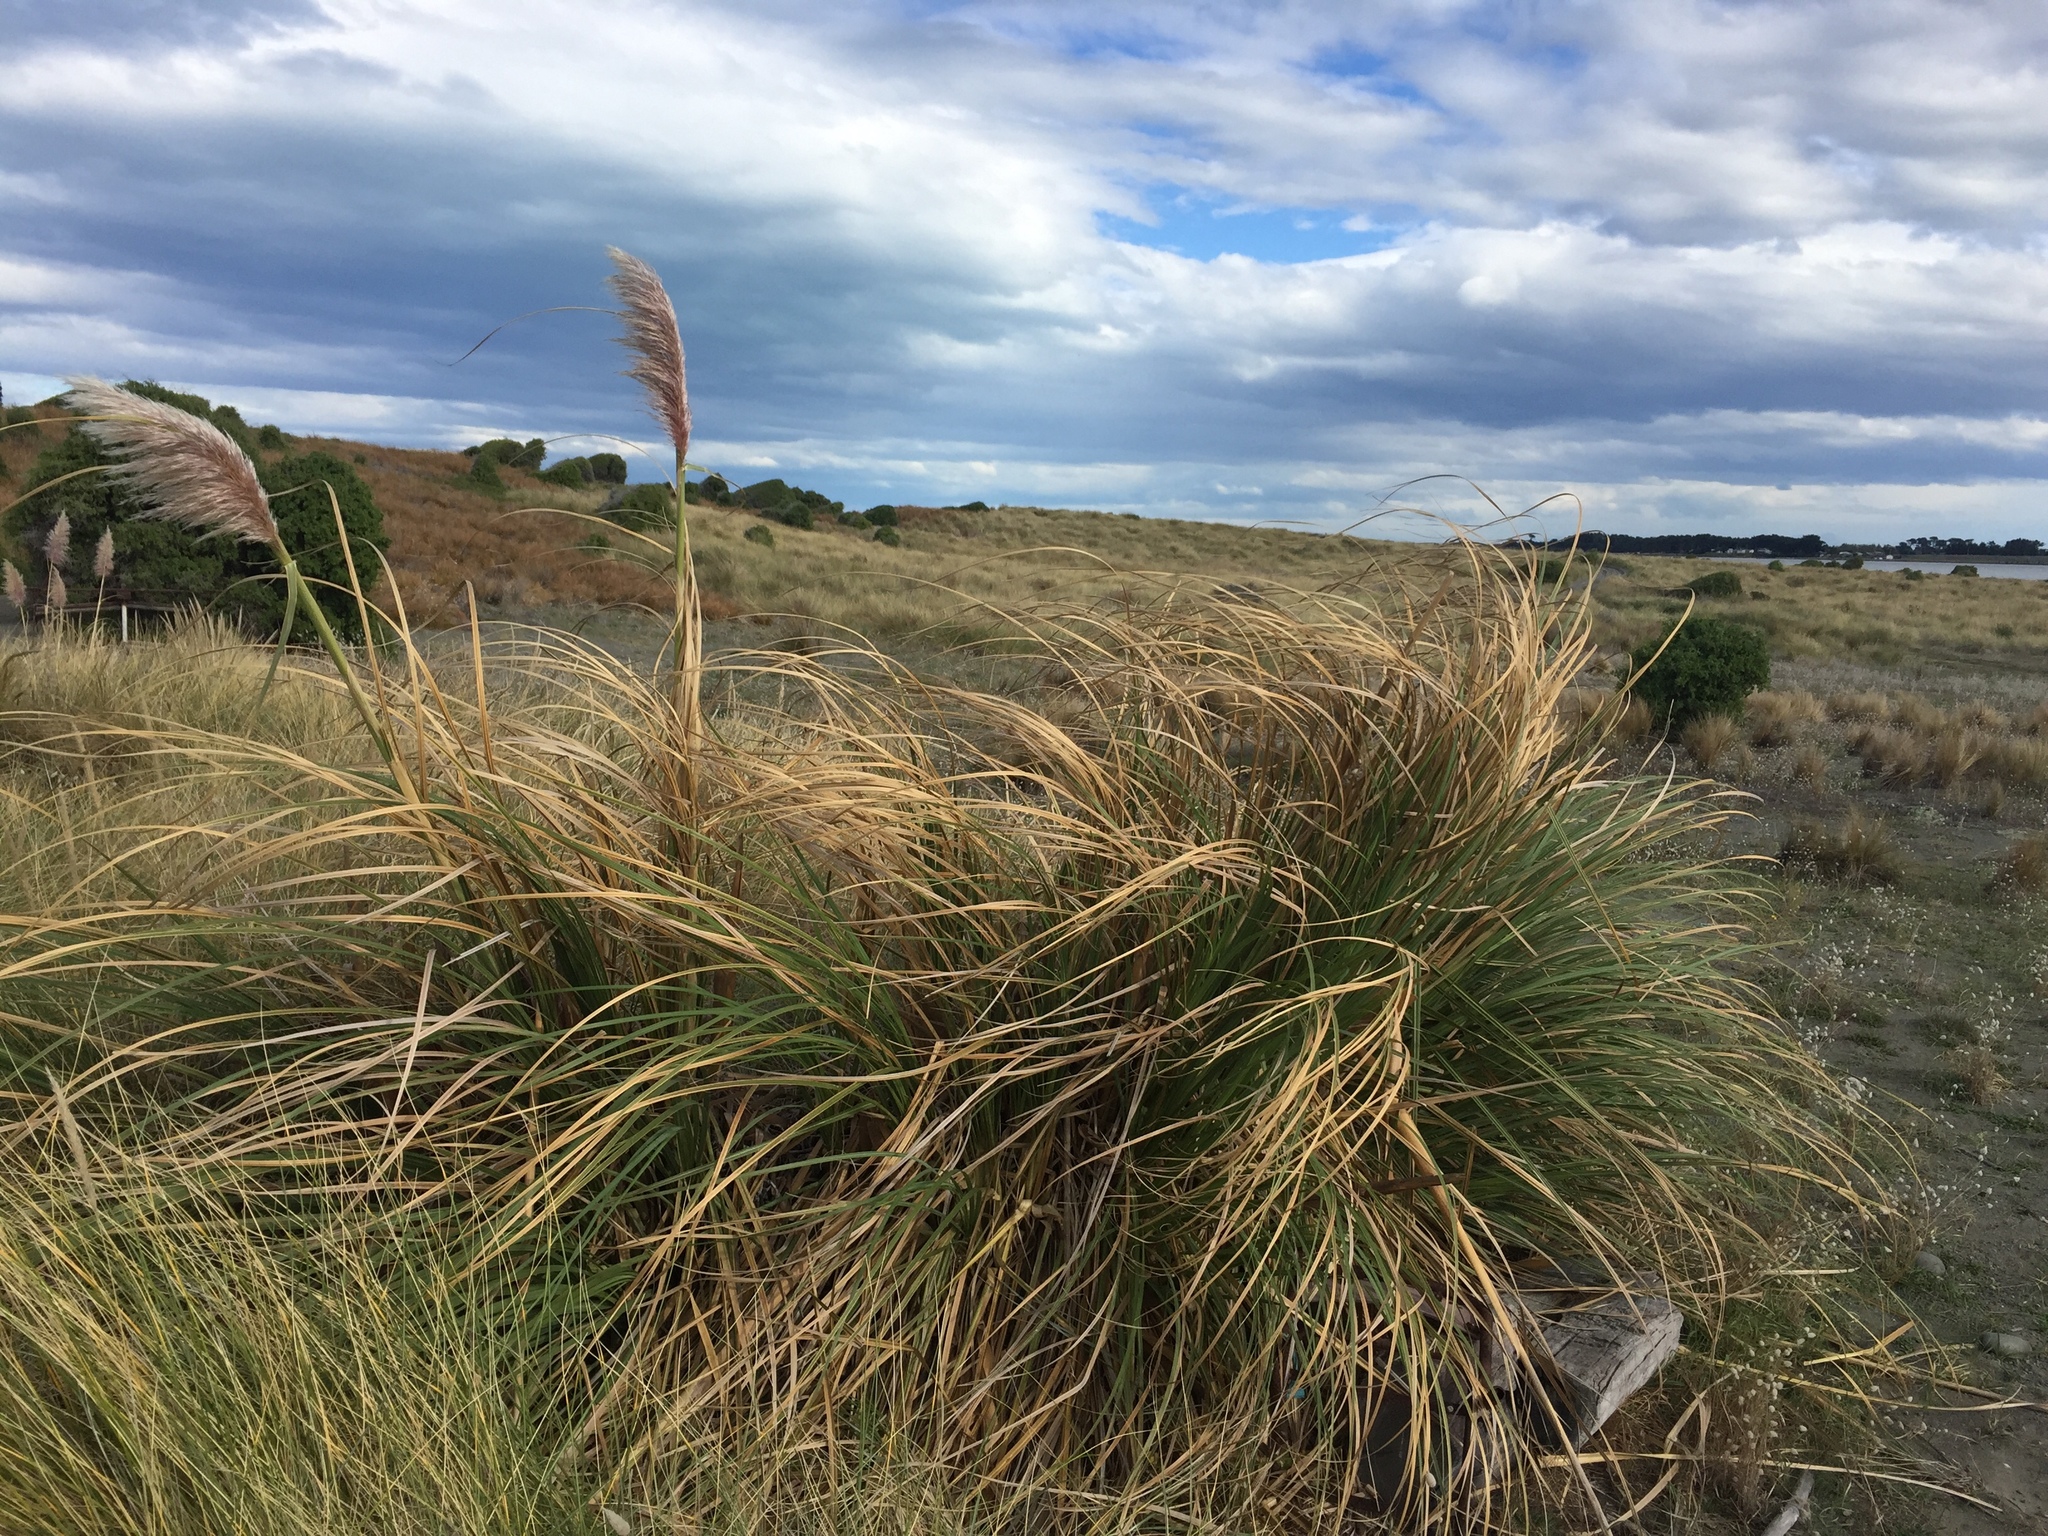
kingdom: Plantae
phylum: Tracheophyta
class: Liliopsida
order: Poales
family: Poaceae
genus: Cortaderia
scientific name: Cortaderia selloana
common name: Uruguayan pampas grass
